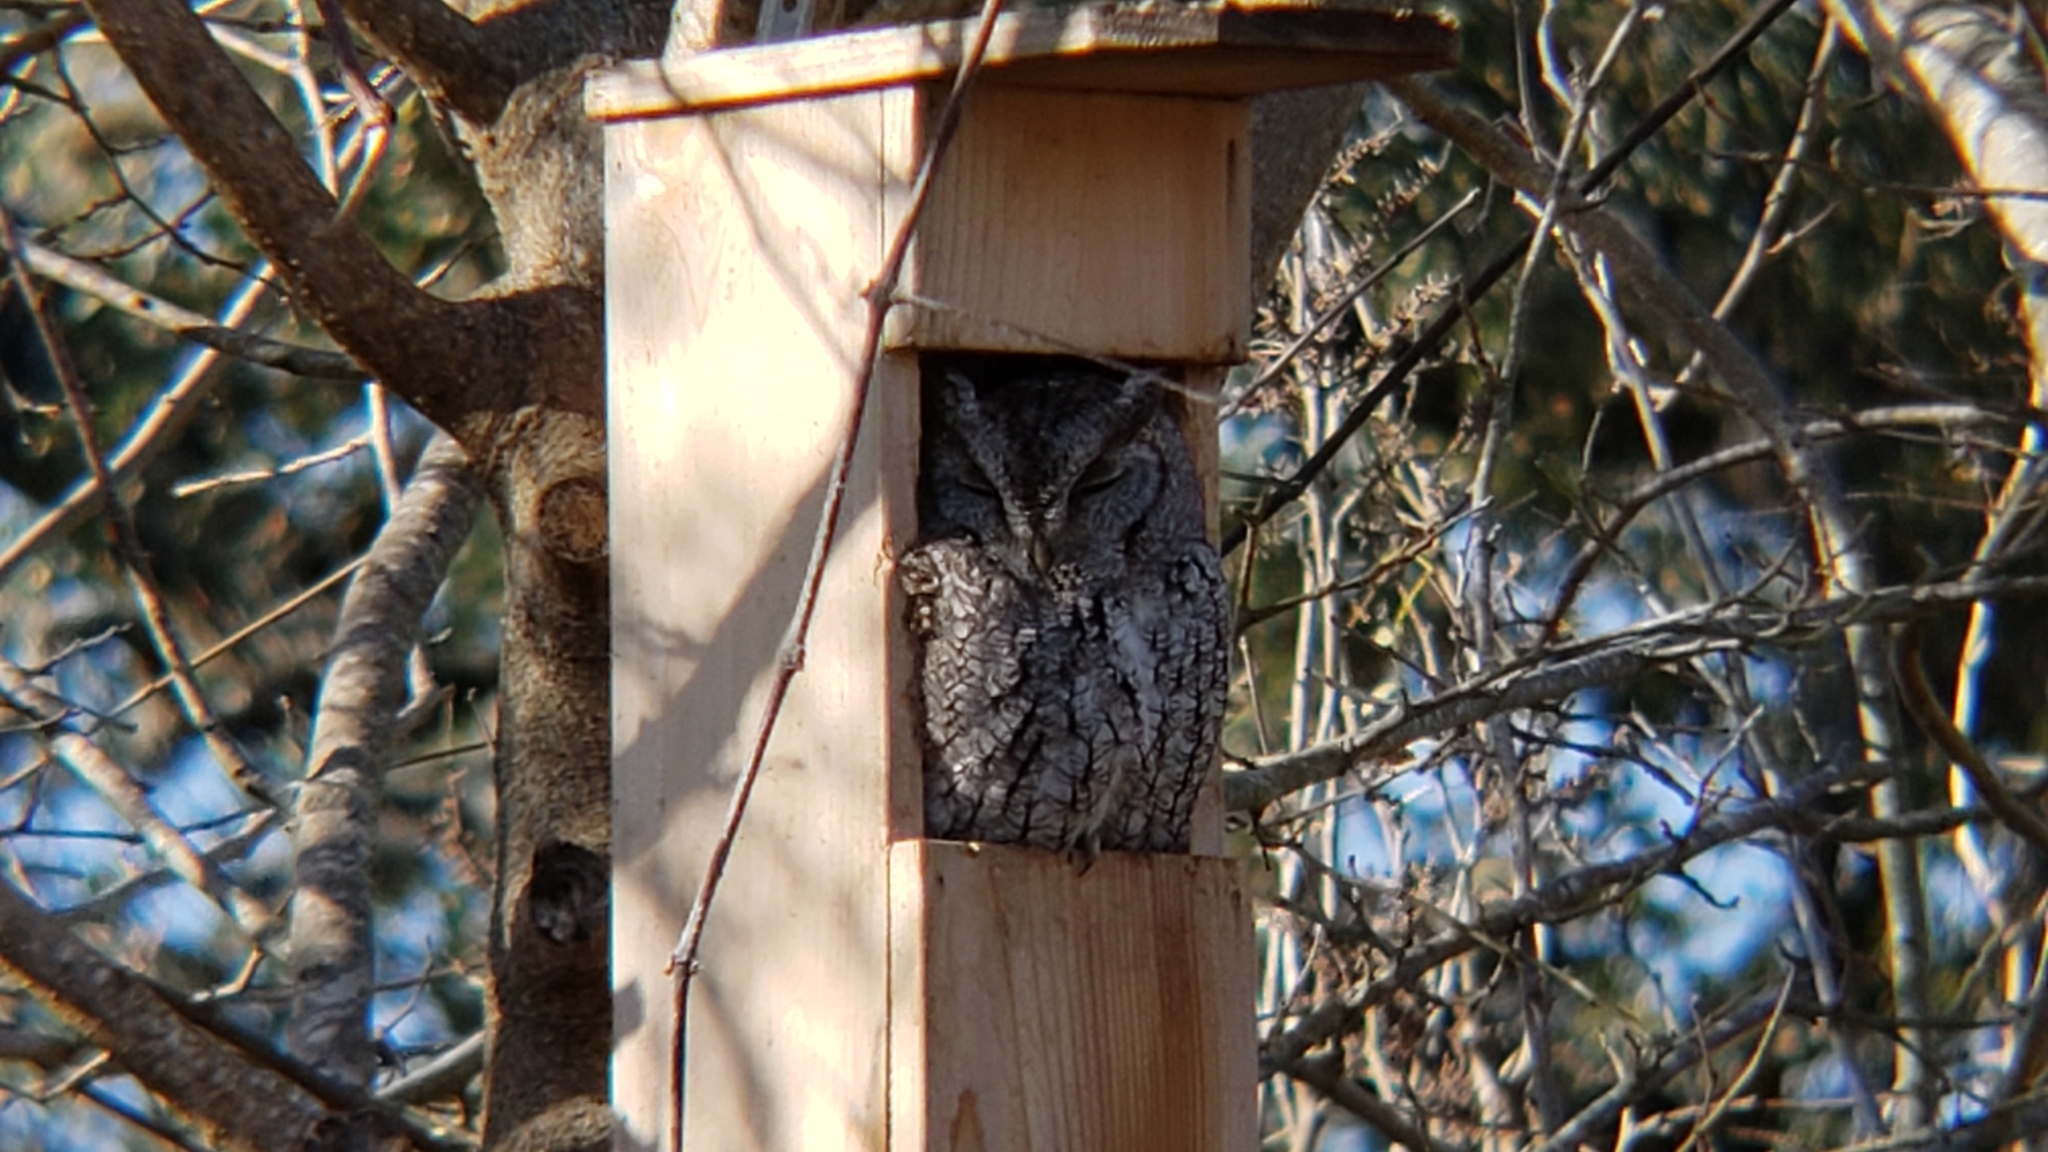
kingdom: Animalia
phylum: Chordata
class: Aves
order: Strigiformes
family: Strigidae
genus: Megascops
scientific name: Megascops asio
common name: Eastern screech-owl
